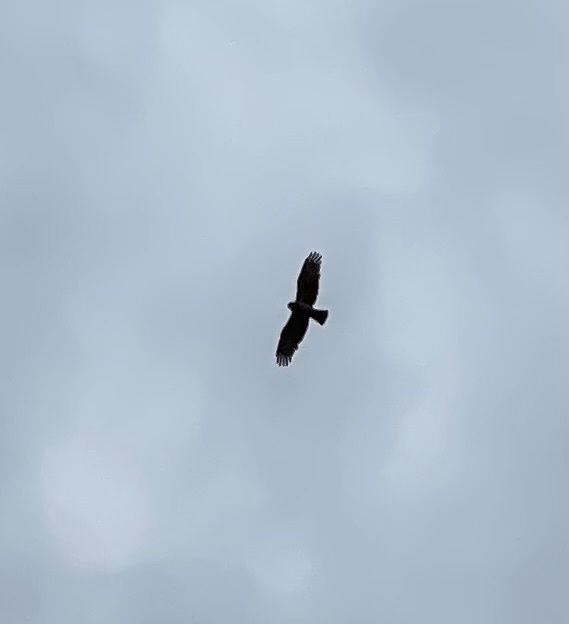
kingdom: Animalia
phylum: Chordata
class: Aves
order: Accipitriformes
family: Accipitridae
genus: Circaetus
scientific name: Circaetus gallicus
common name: Short-toed snake eagle
